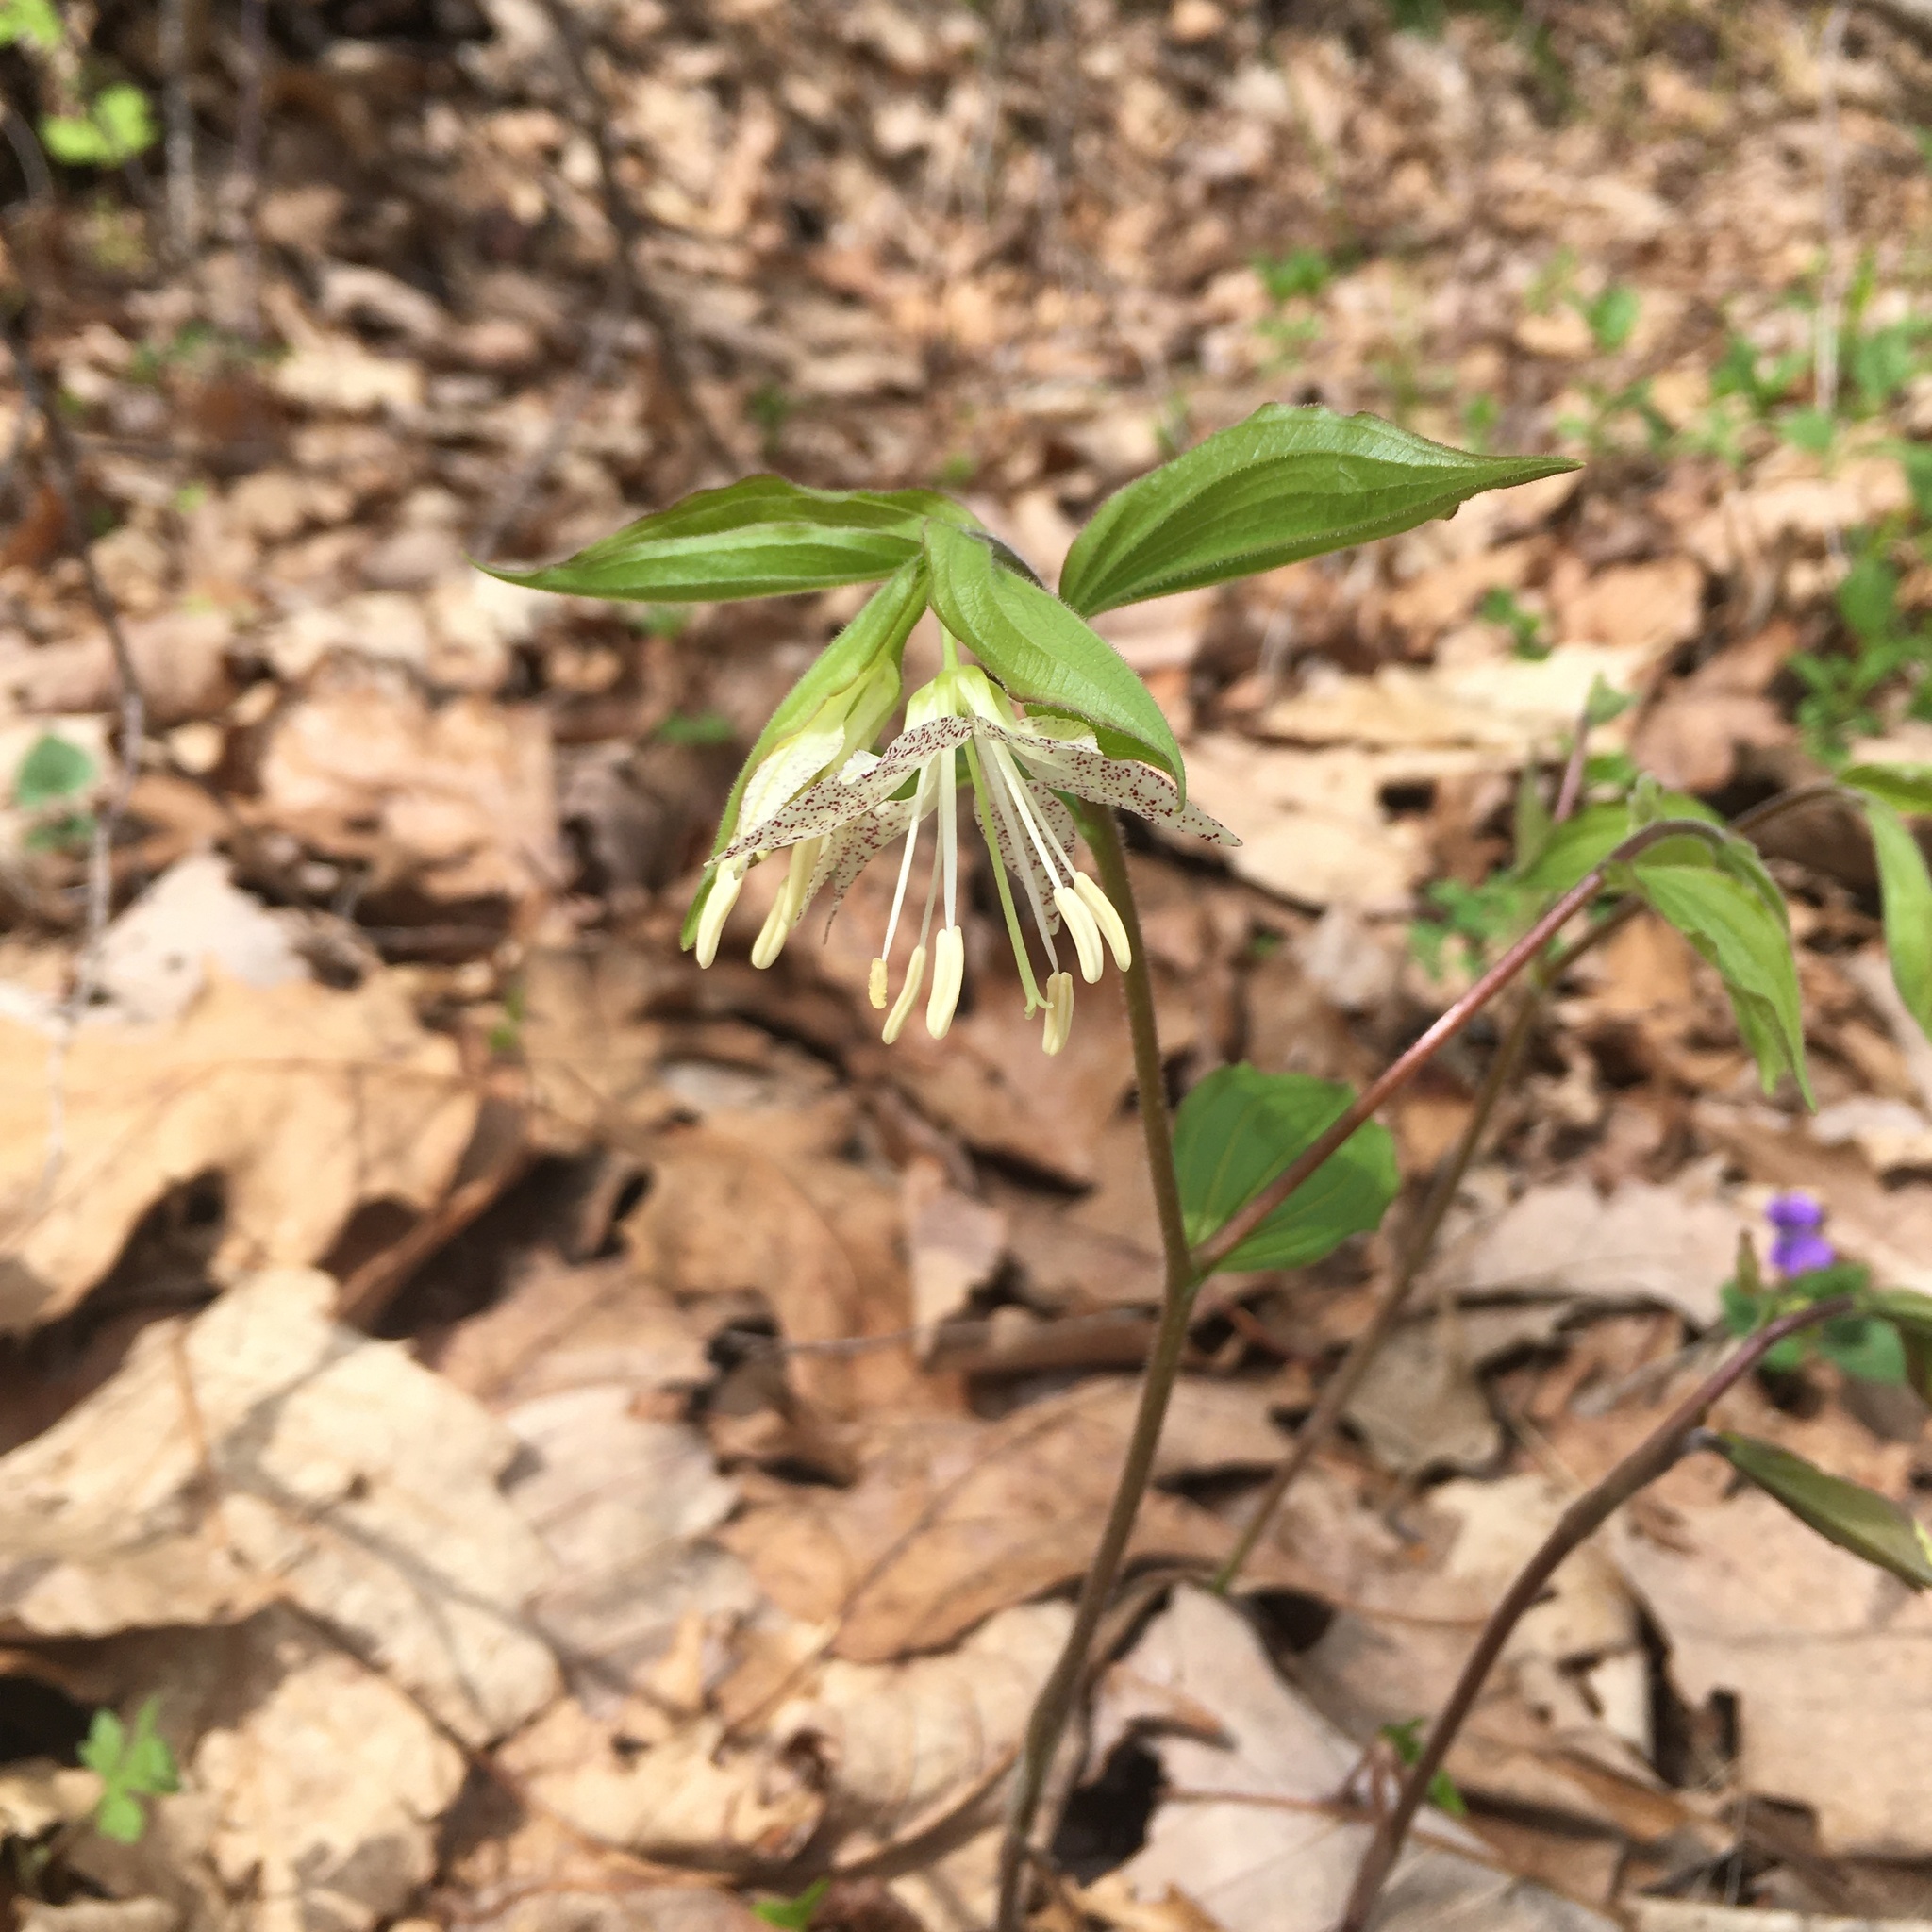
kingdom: Plantae
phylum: Tracheophyta
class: Liliopsida
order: Liliales
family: Liliaceae
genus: Prosartes
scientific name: Prosartes maculata
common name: Yellow mandarin
